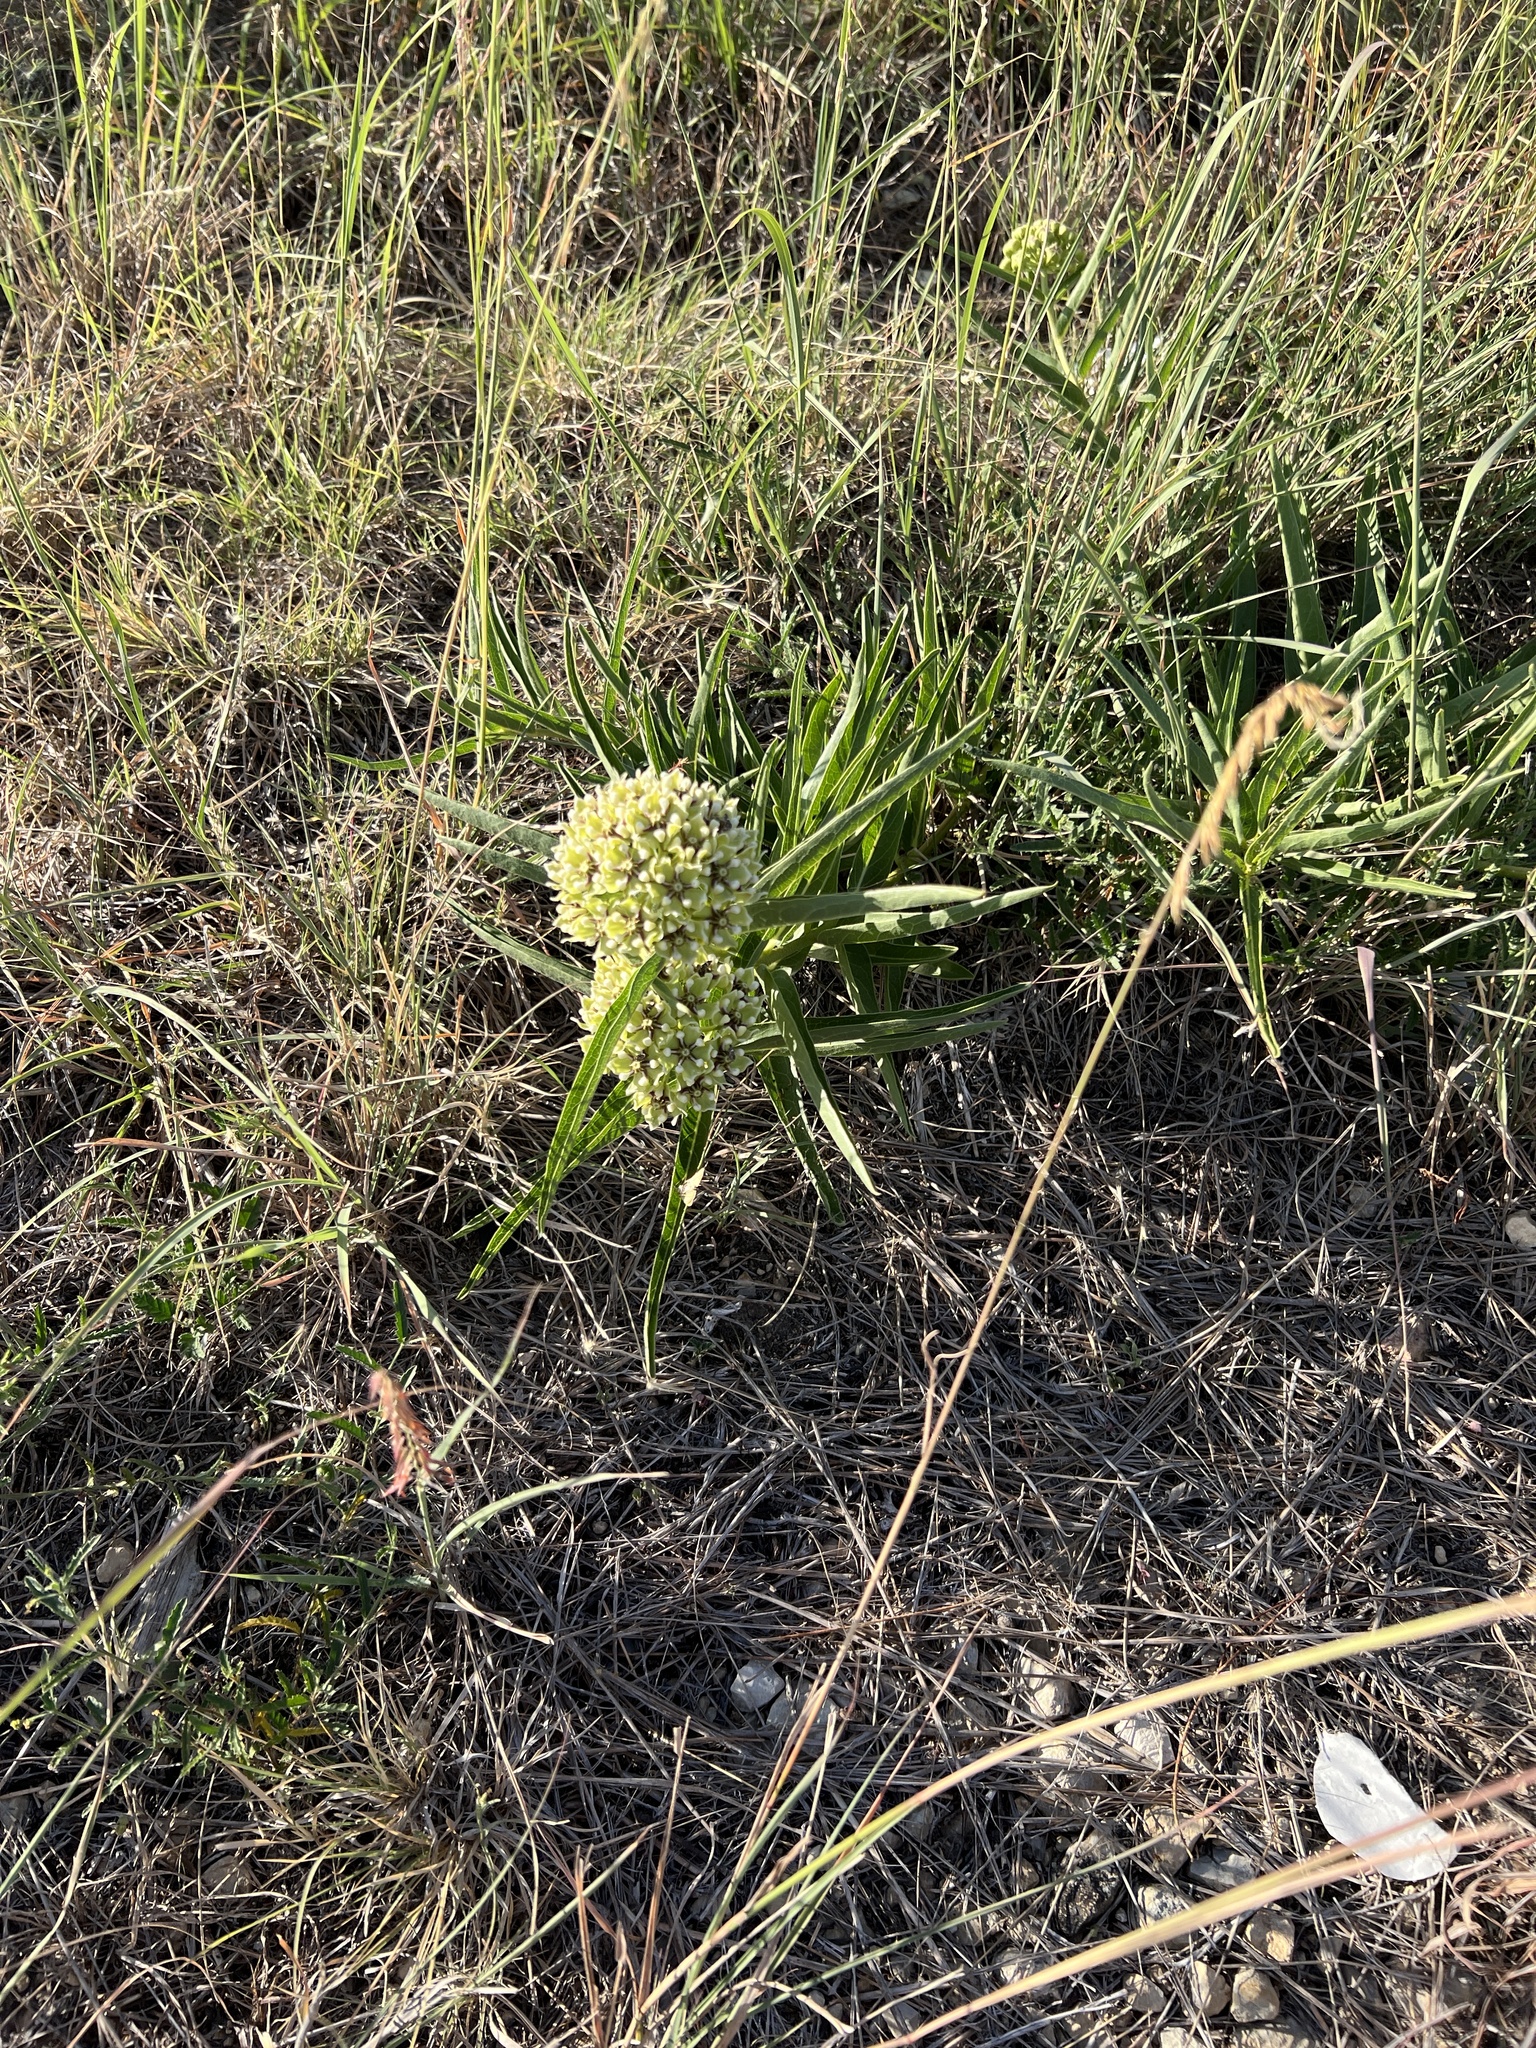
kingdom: Plantae
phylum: Tracheophyta
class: Magnoliopsida
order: Gentianales
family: Apocynaceae
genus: Asclepias
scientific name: Asclepias asperula
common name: Antelope horns
